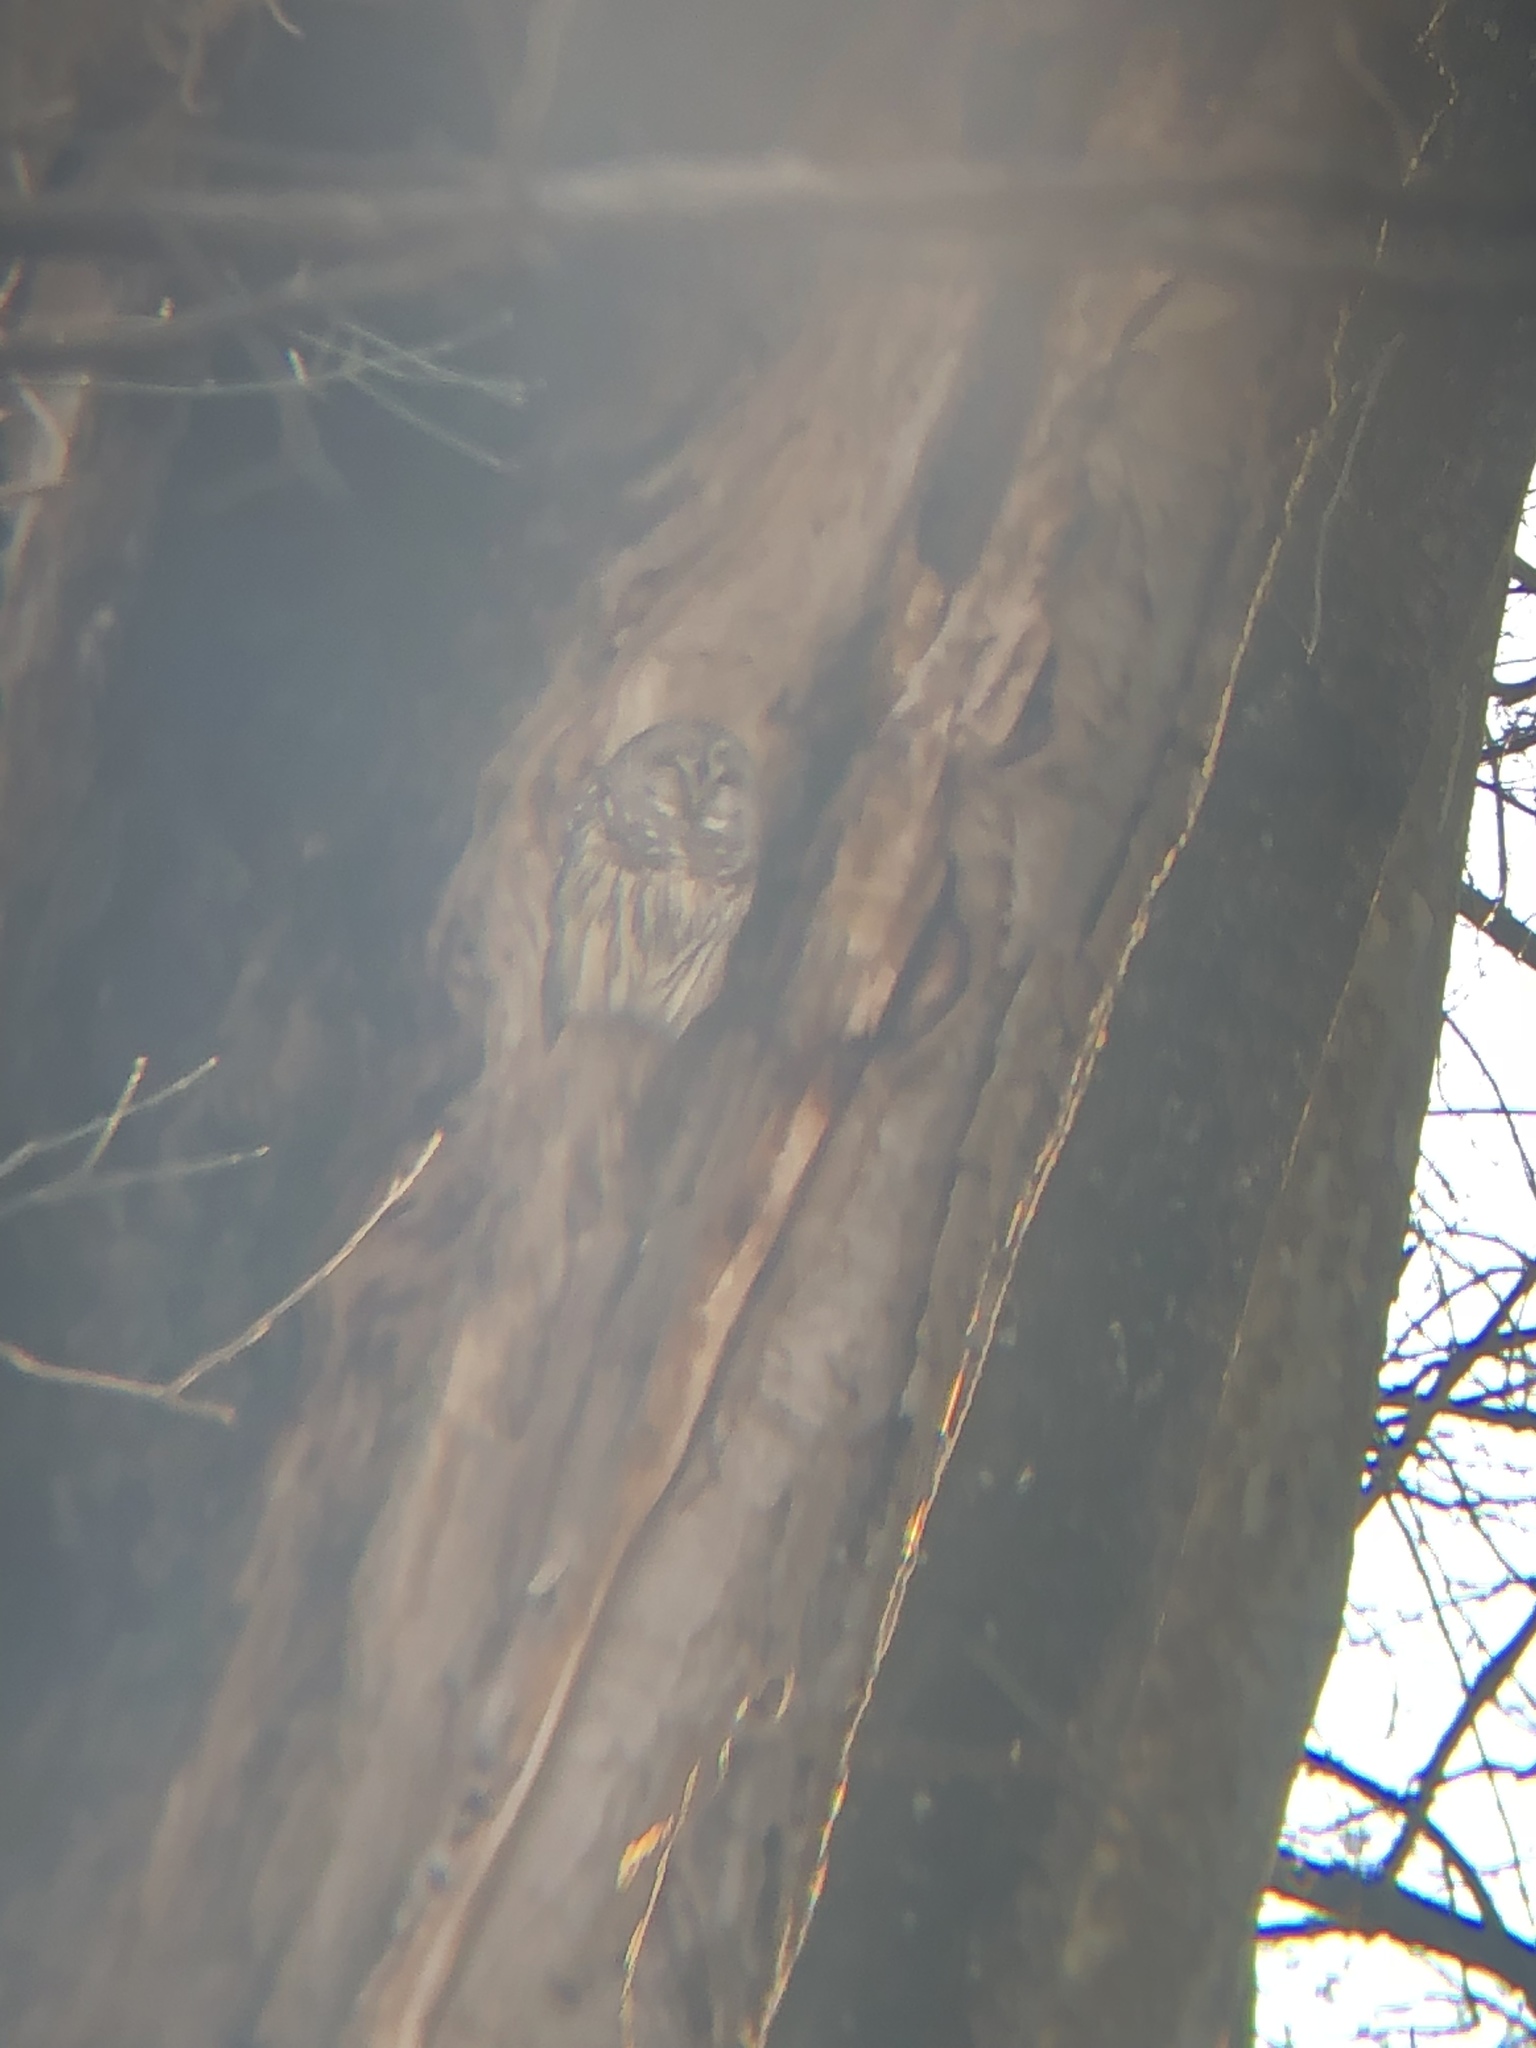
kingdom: Animalia
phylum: Chordata
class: Aves
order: Strigiformes
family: Strigidae
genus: Strix
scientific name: Strix varia
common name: Barred owl
